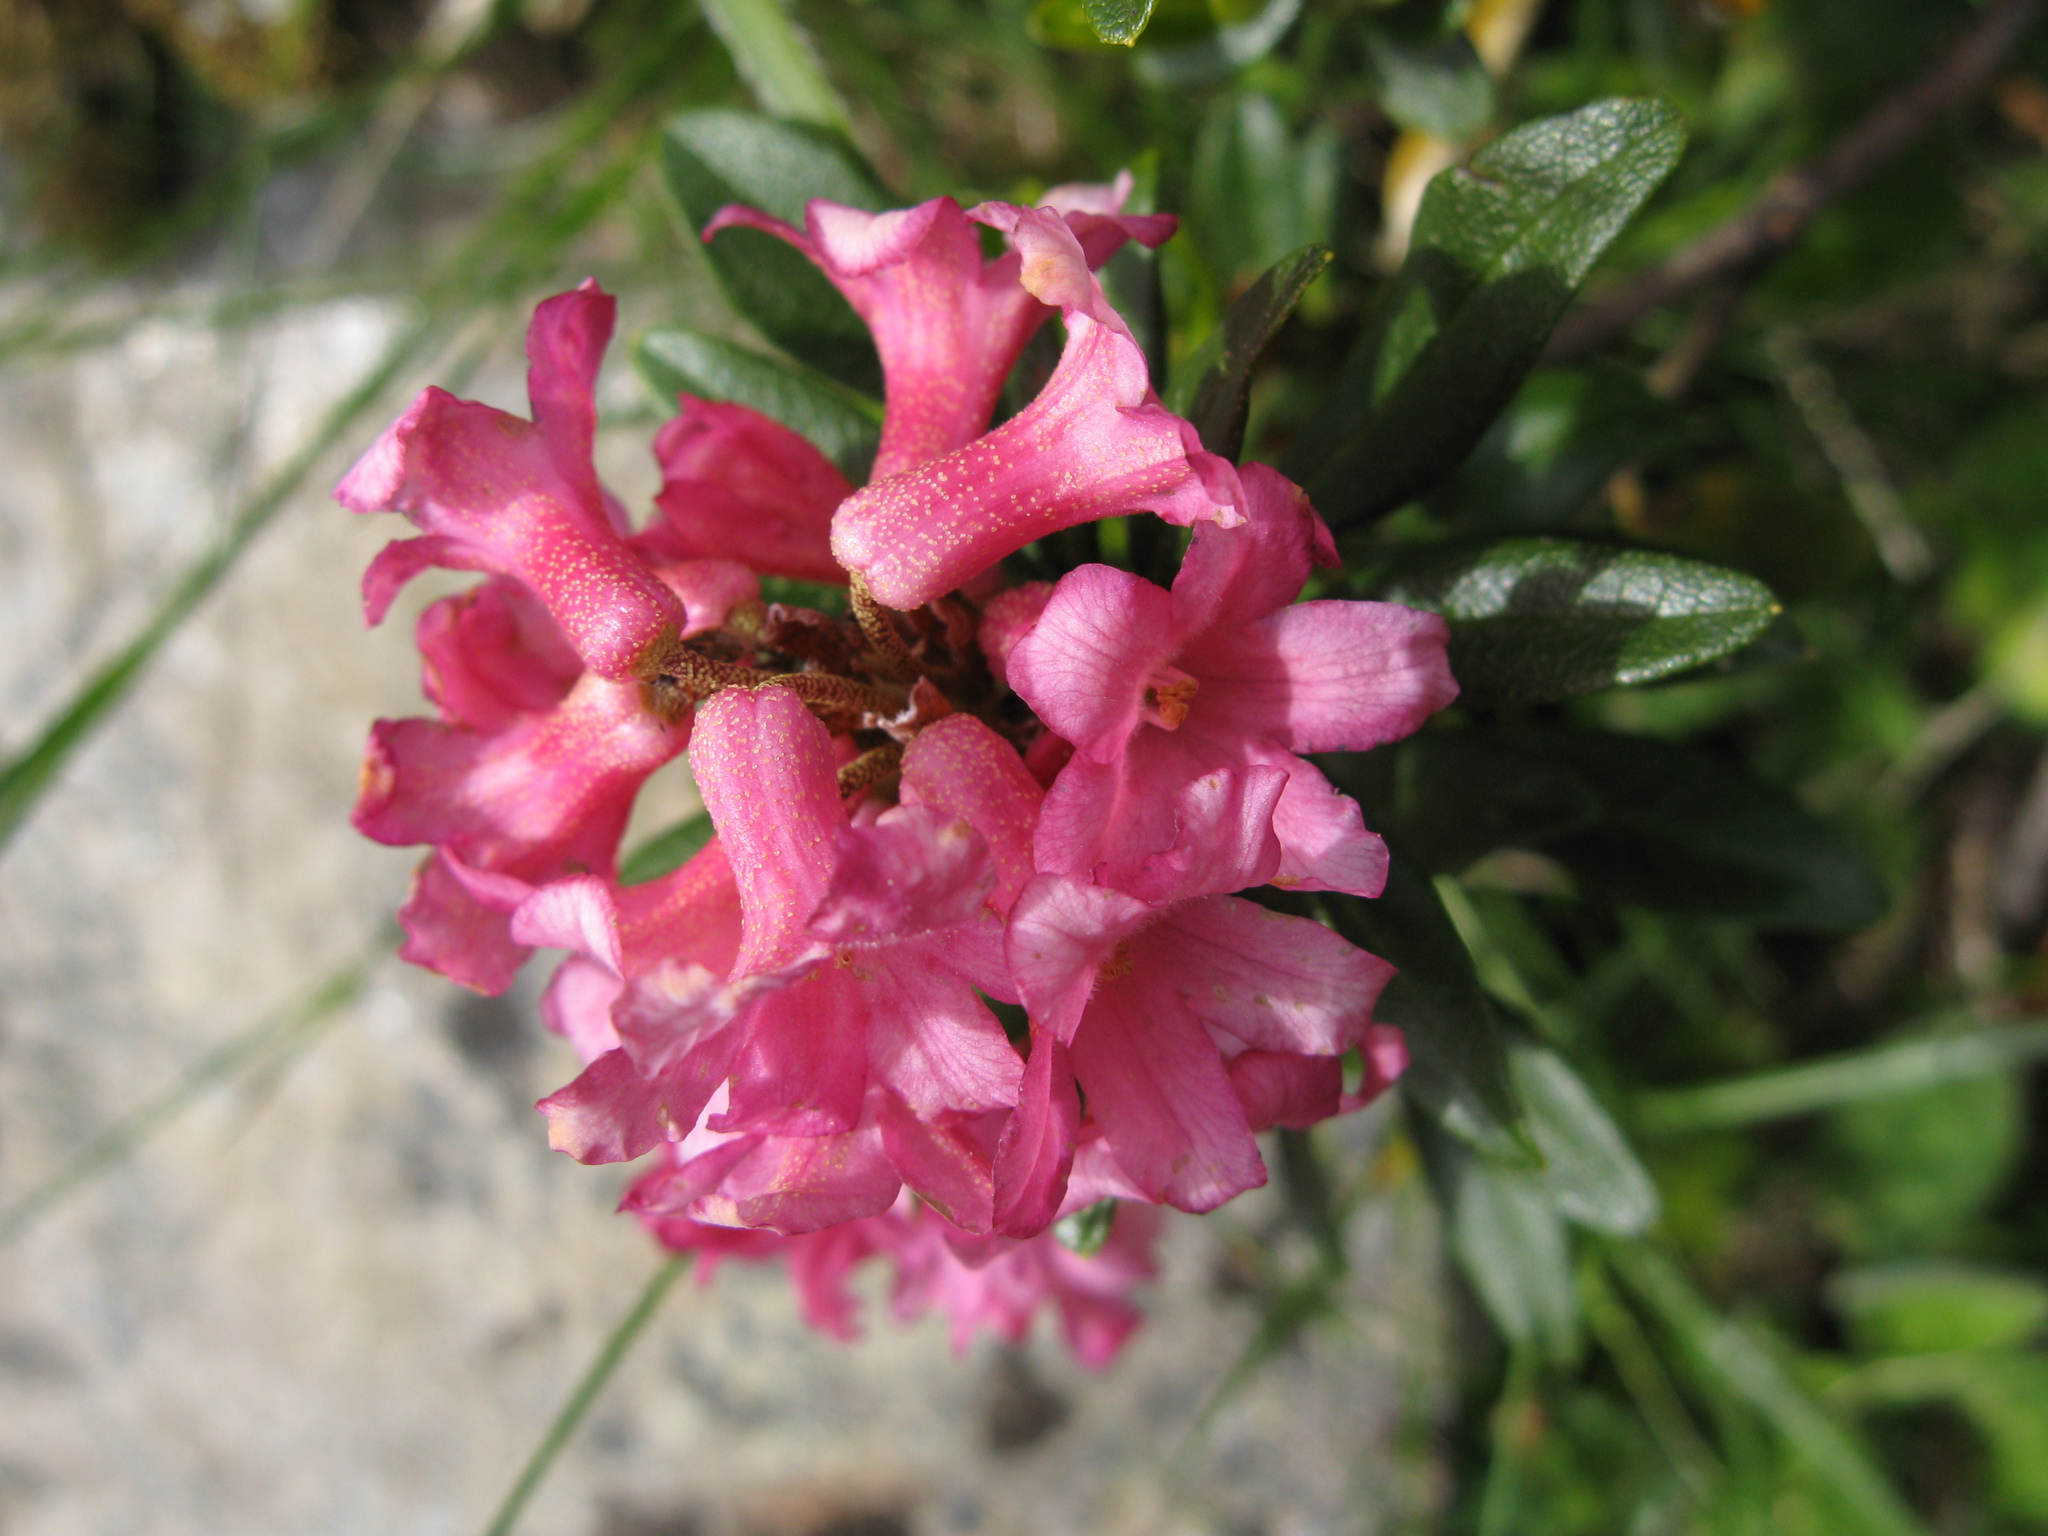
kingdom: Plantae
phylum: Tracheophyta
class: Magnoliopsida
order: Ericales
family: Ericaceae
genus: Rhododendron
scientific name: Rhododendron ferrugineum
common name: Alpenrose
